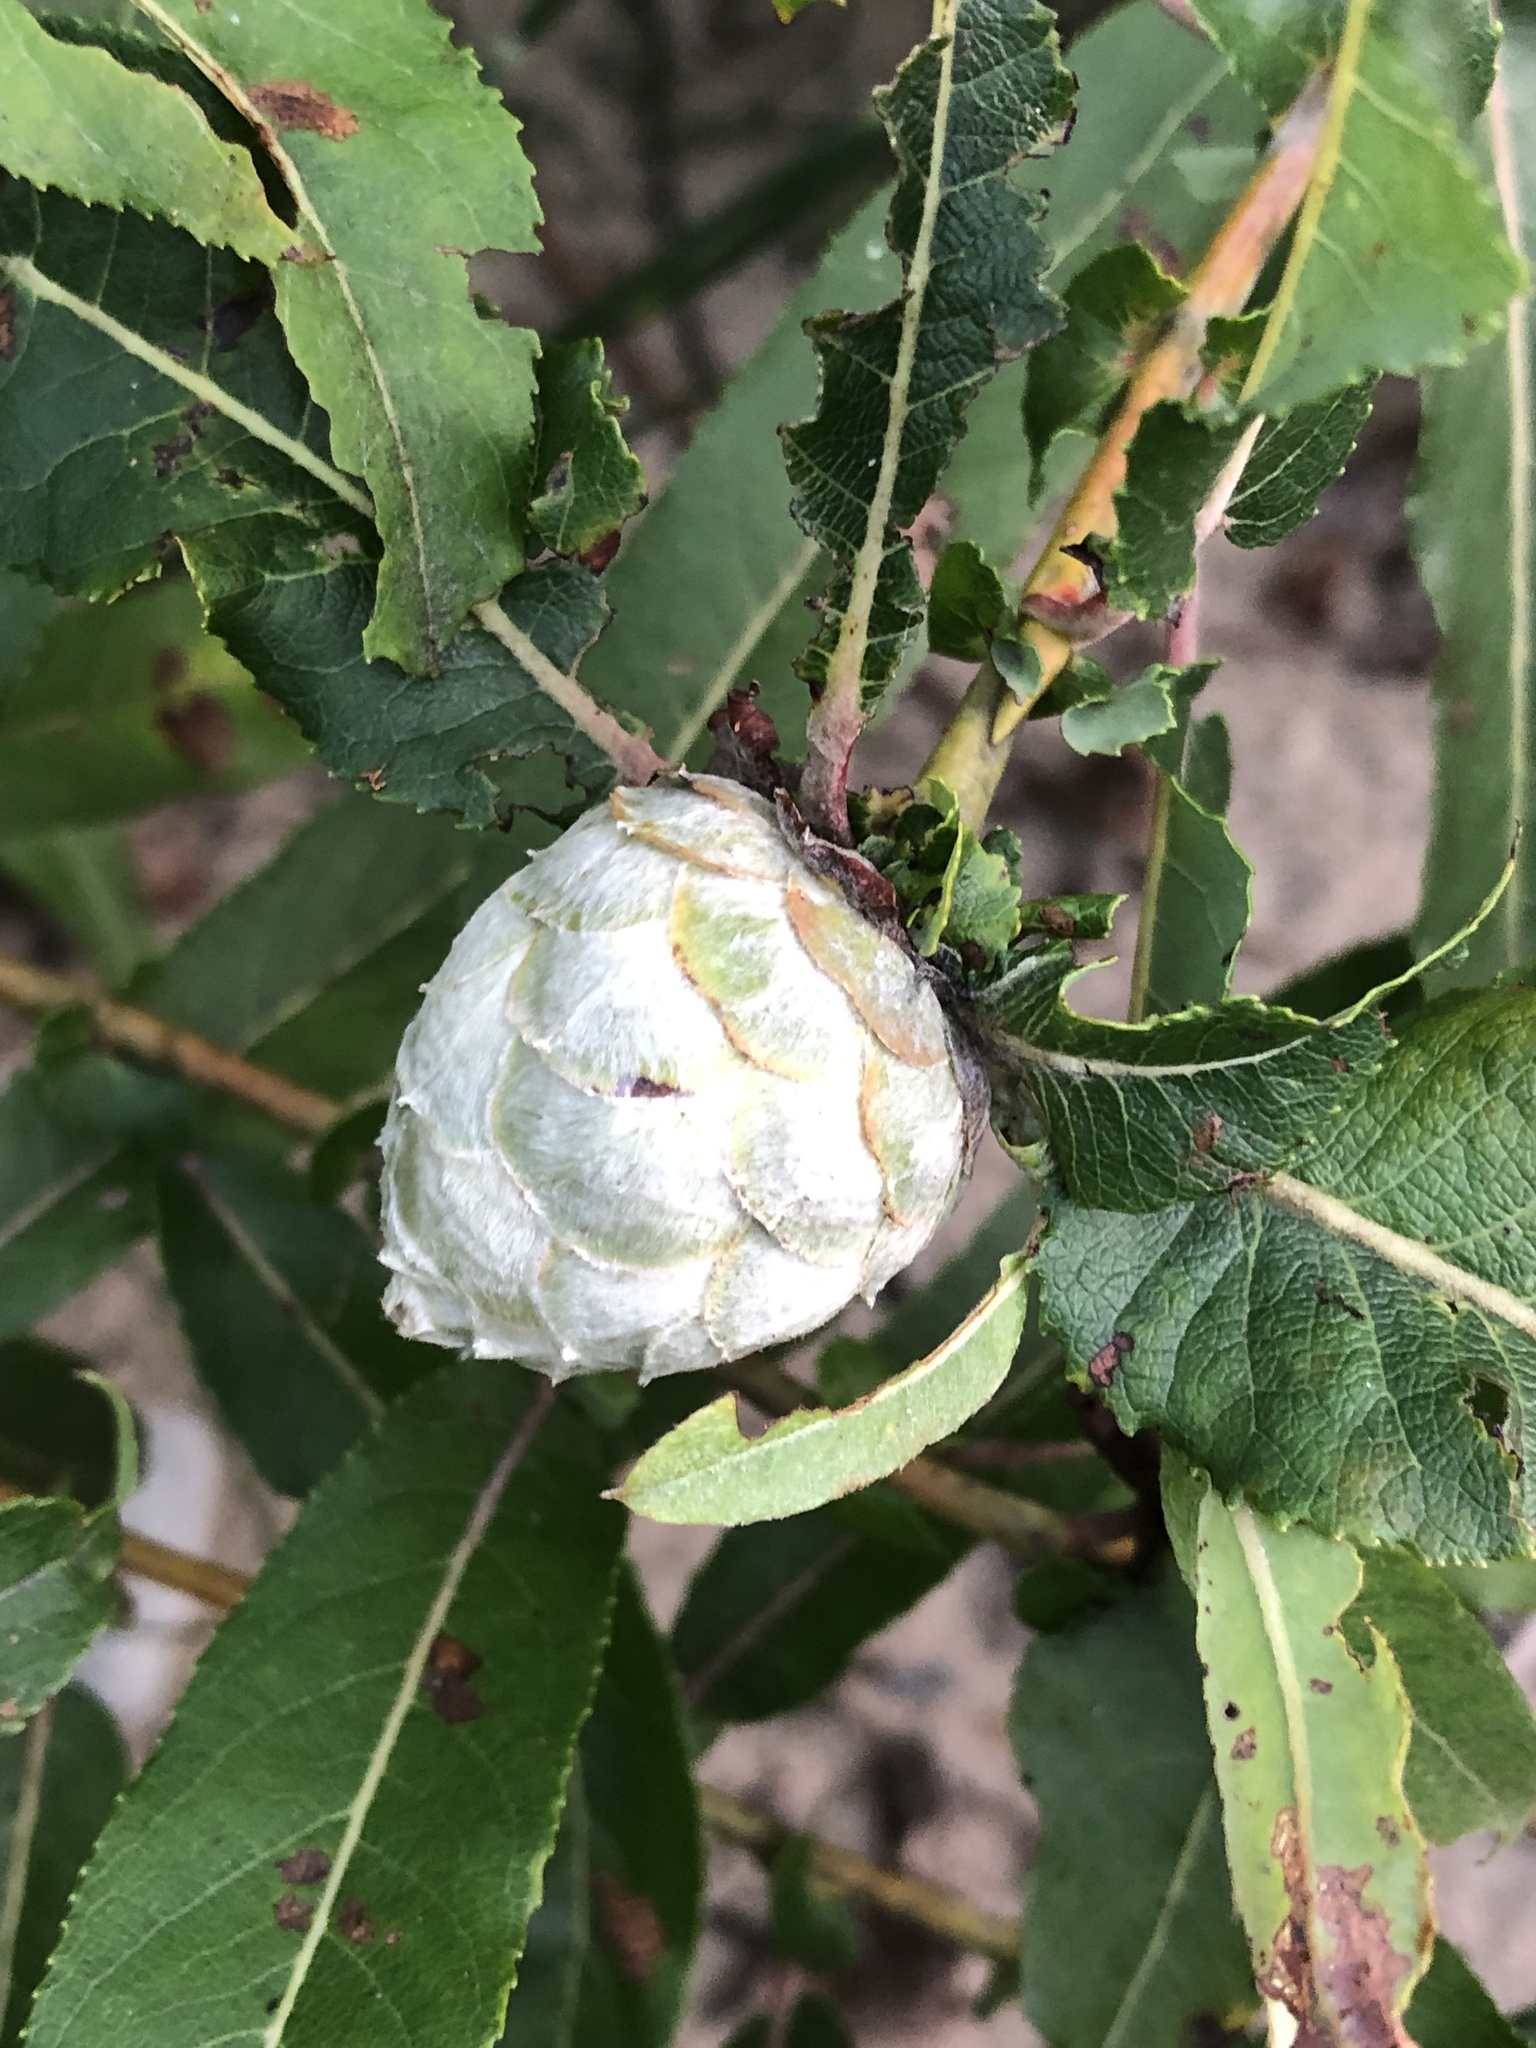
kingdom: Animalia
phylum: Arthropoda
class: Insecta
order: Diptera
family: Cecidomyiidae
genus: Rabdophaga
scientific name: Rabdophaga strobiloides
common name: Willow pinecone gall midge
